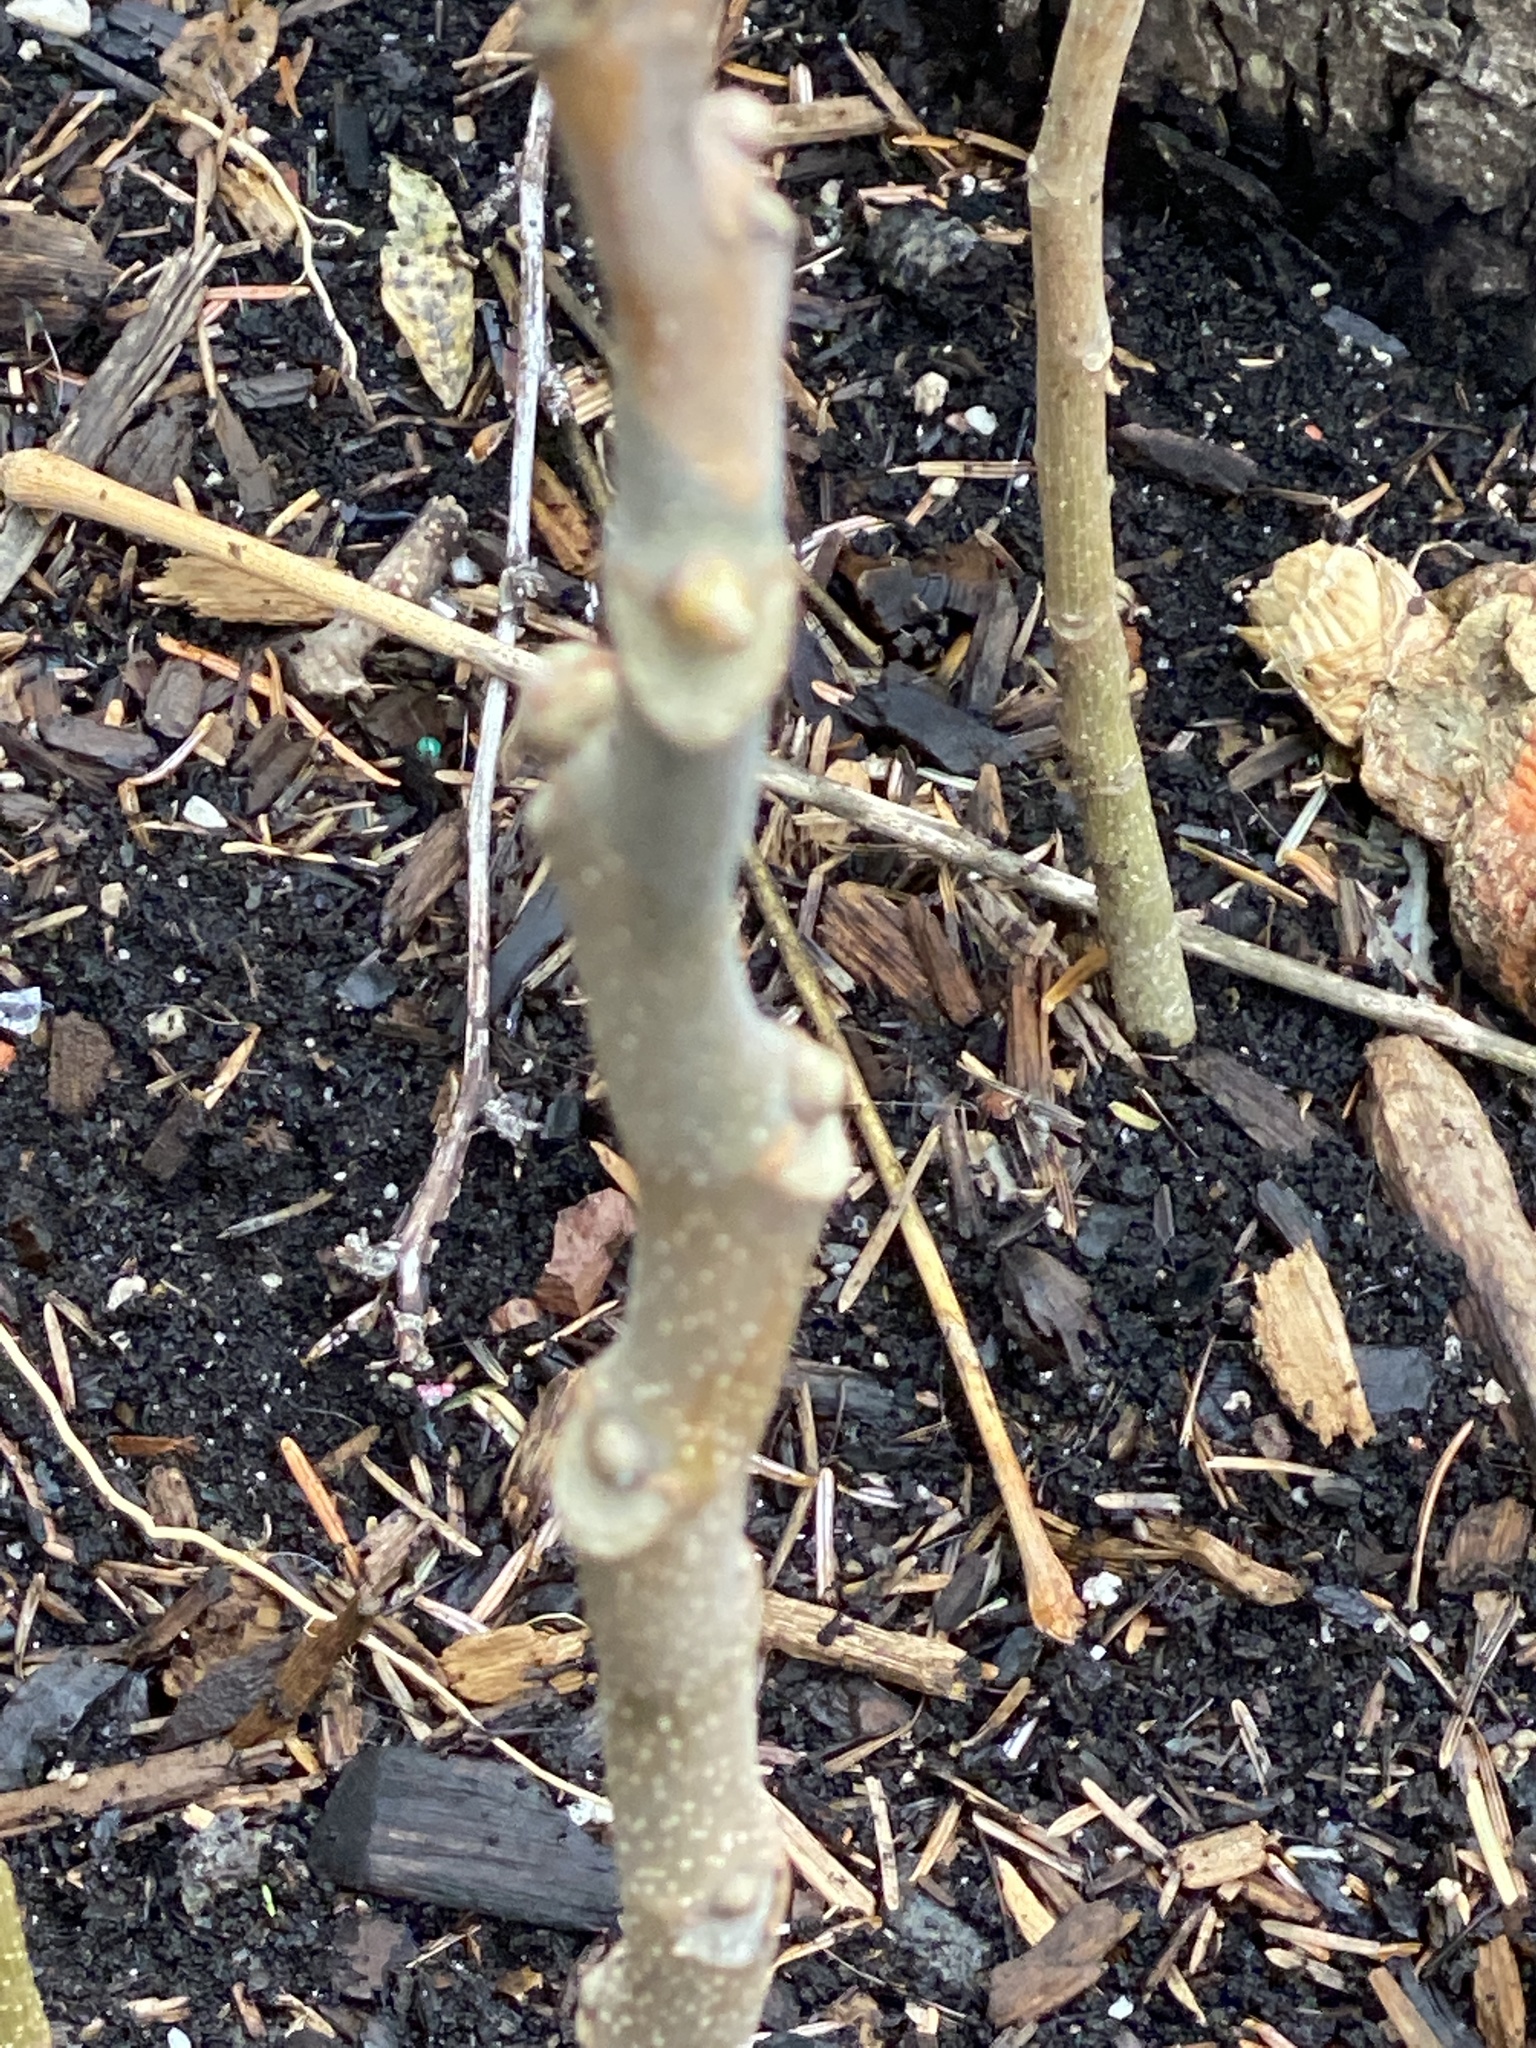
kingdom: Plantae
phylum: Tracheophyta
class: Magnoliopsida
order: Sapindales
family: Simaroubaceae
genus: Ailanthus
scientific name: Ailanthus altissima
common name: Tree-of-heaven
